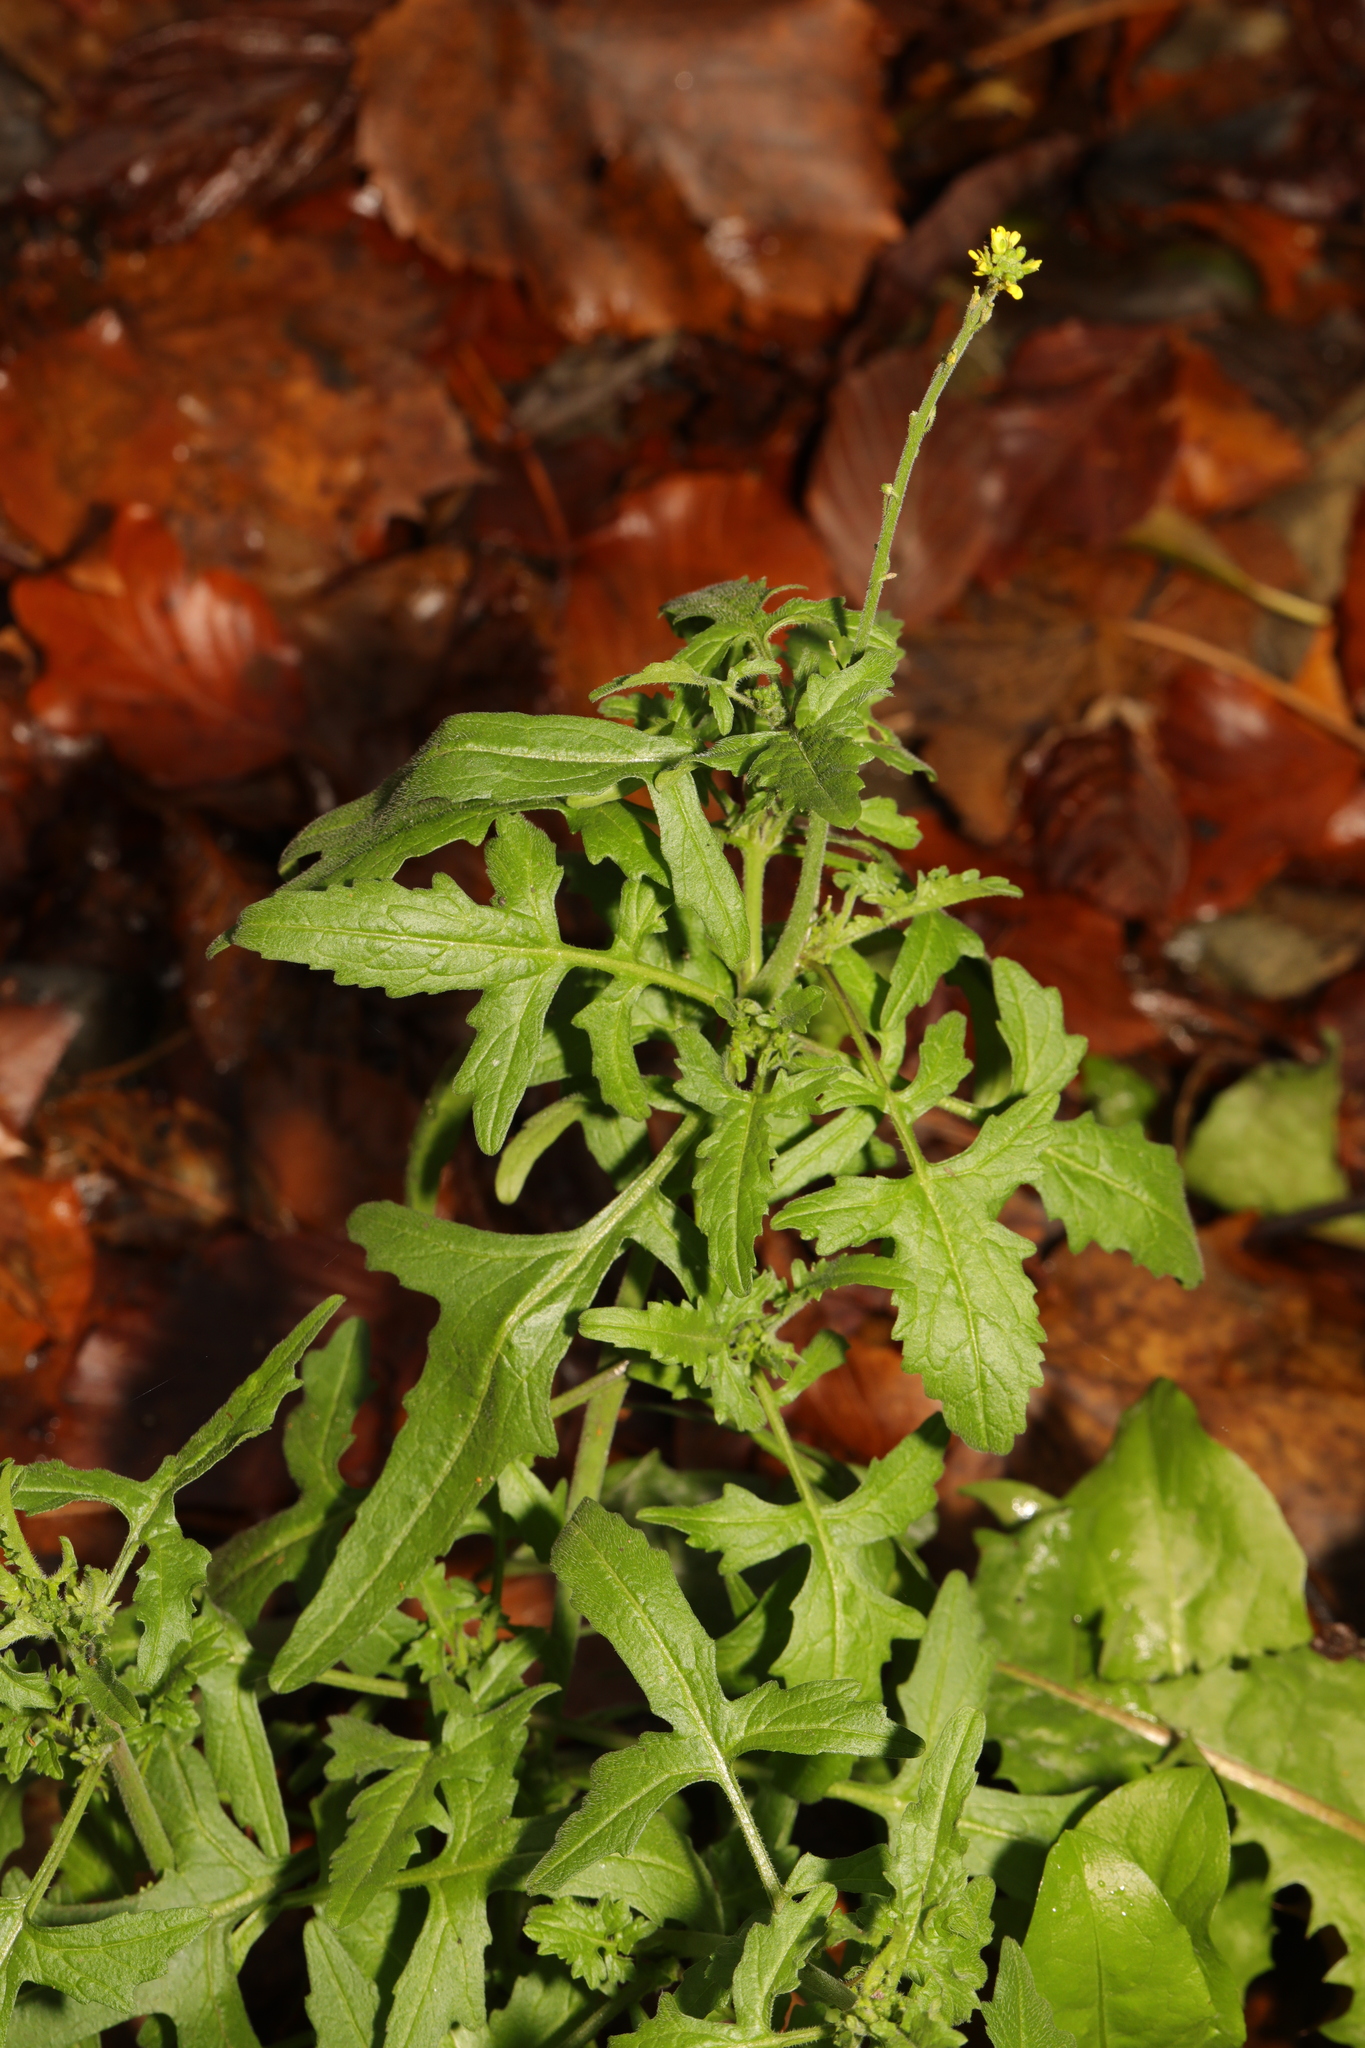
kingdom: Plantae
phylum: Tracheophyta
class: Magnoliopsida
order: Brassicales
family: Brassicaceae
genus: Sisymbrium
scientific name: Sisymbrium officinale
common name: Hedge mustard
